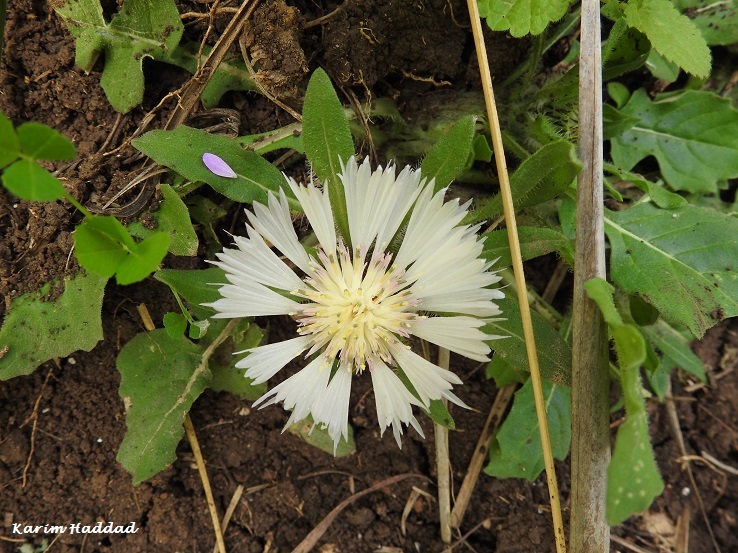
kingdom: Plantae
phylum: Tracheophyta
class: Magnoliopsida
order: Asterales
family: Asteraceae
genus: Centaurea
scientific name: Centaurea pullata
